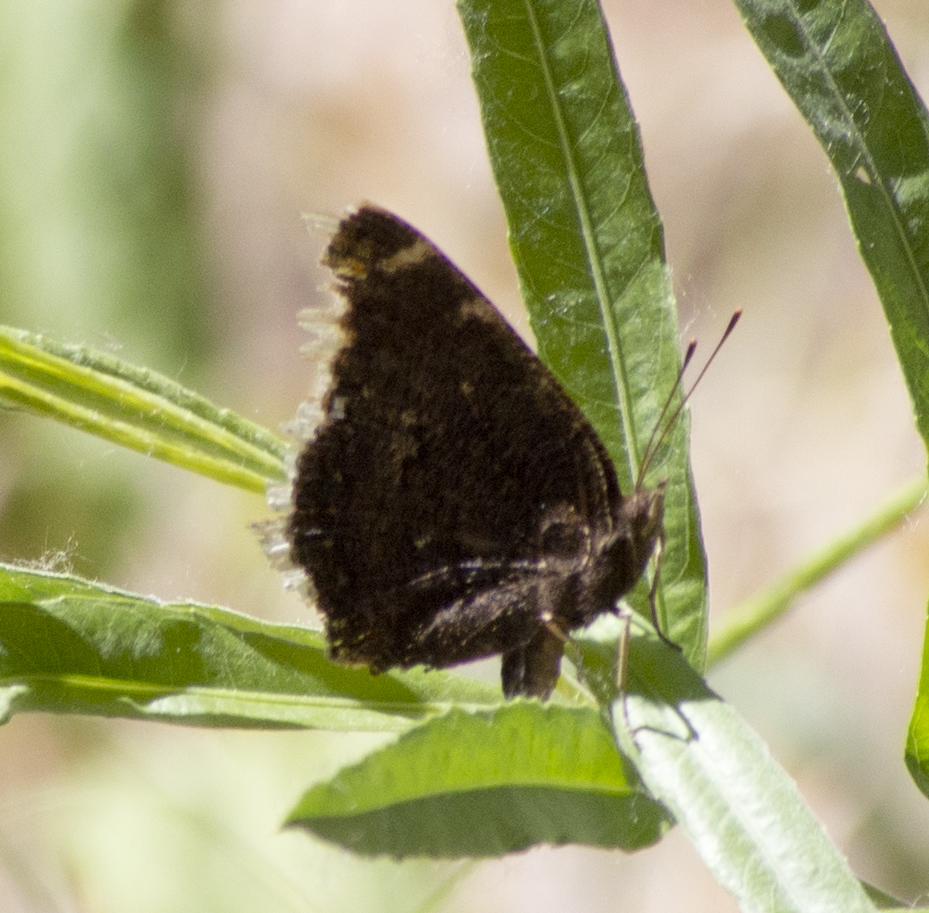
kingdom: Animalia
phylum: Arthropoda
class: Insecta
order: Lepidoptera
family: Nymphalidae
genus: Nymphalis
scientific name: Nymphalis antiopa
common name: Camberwell beauty
